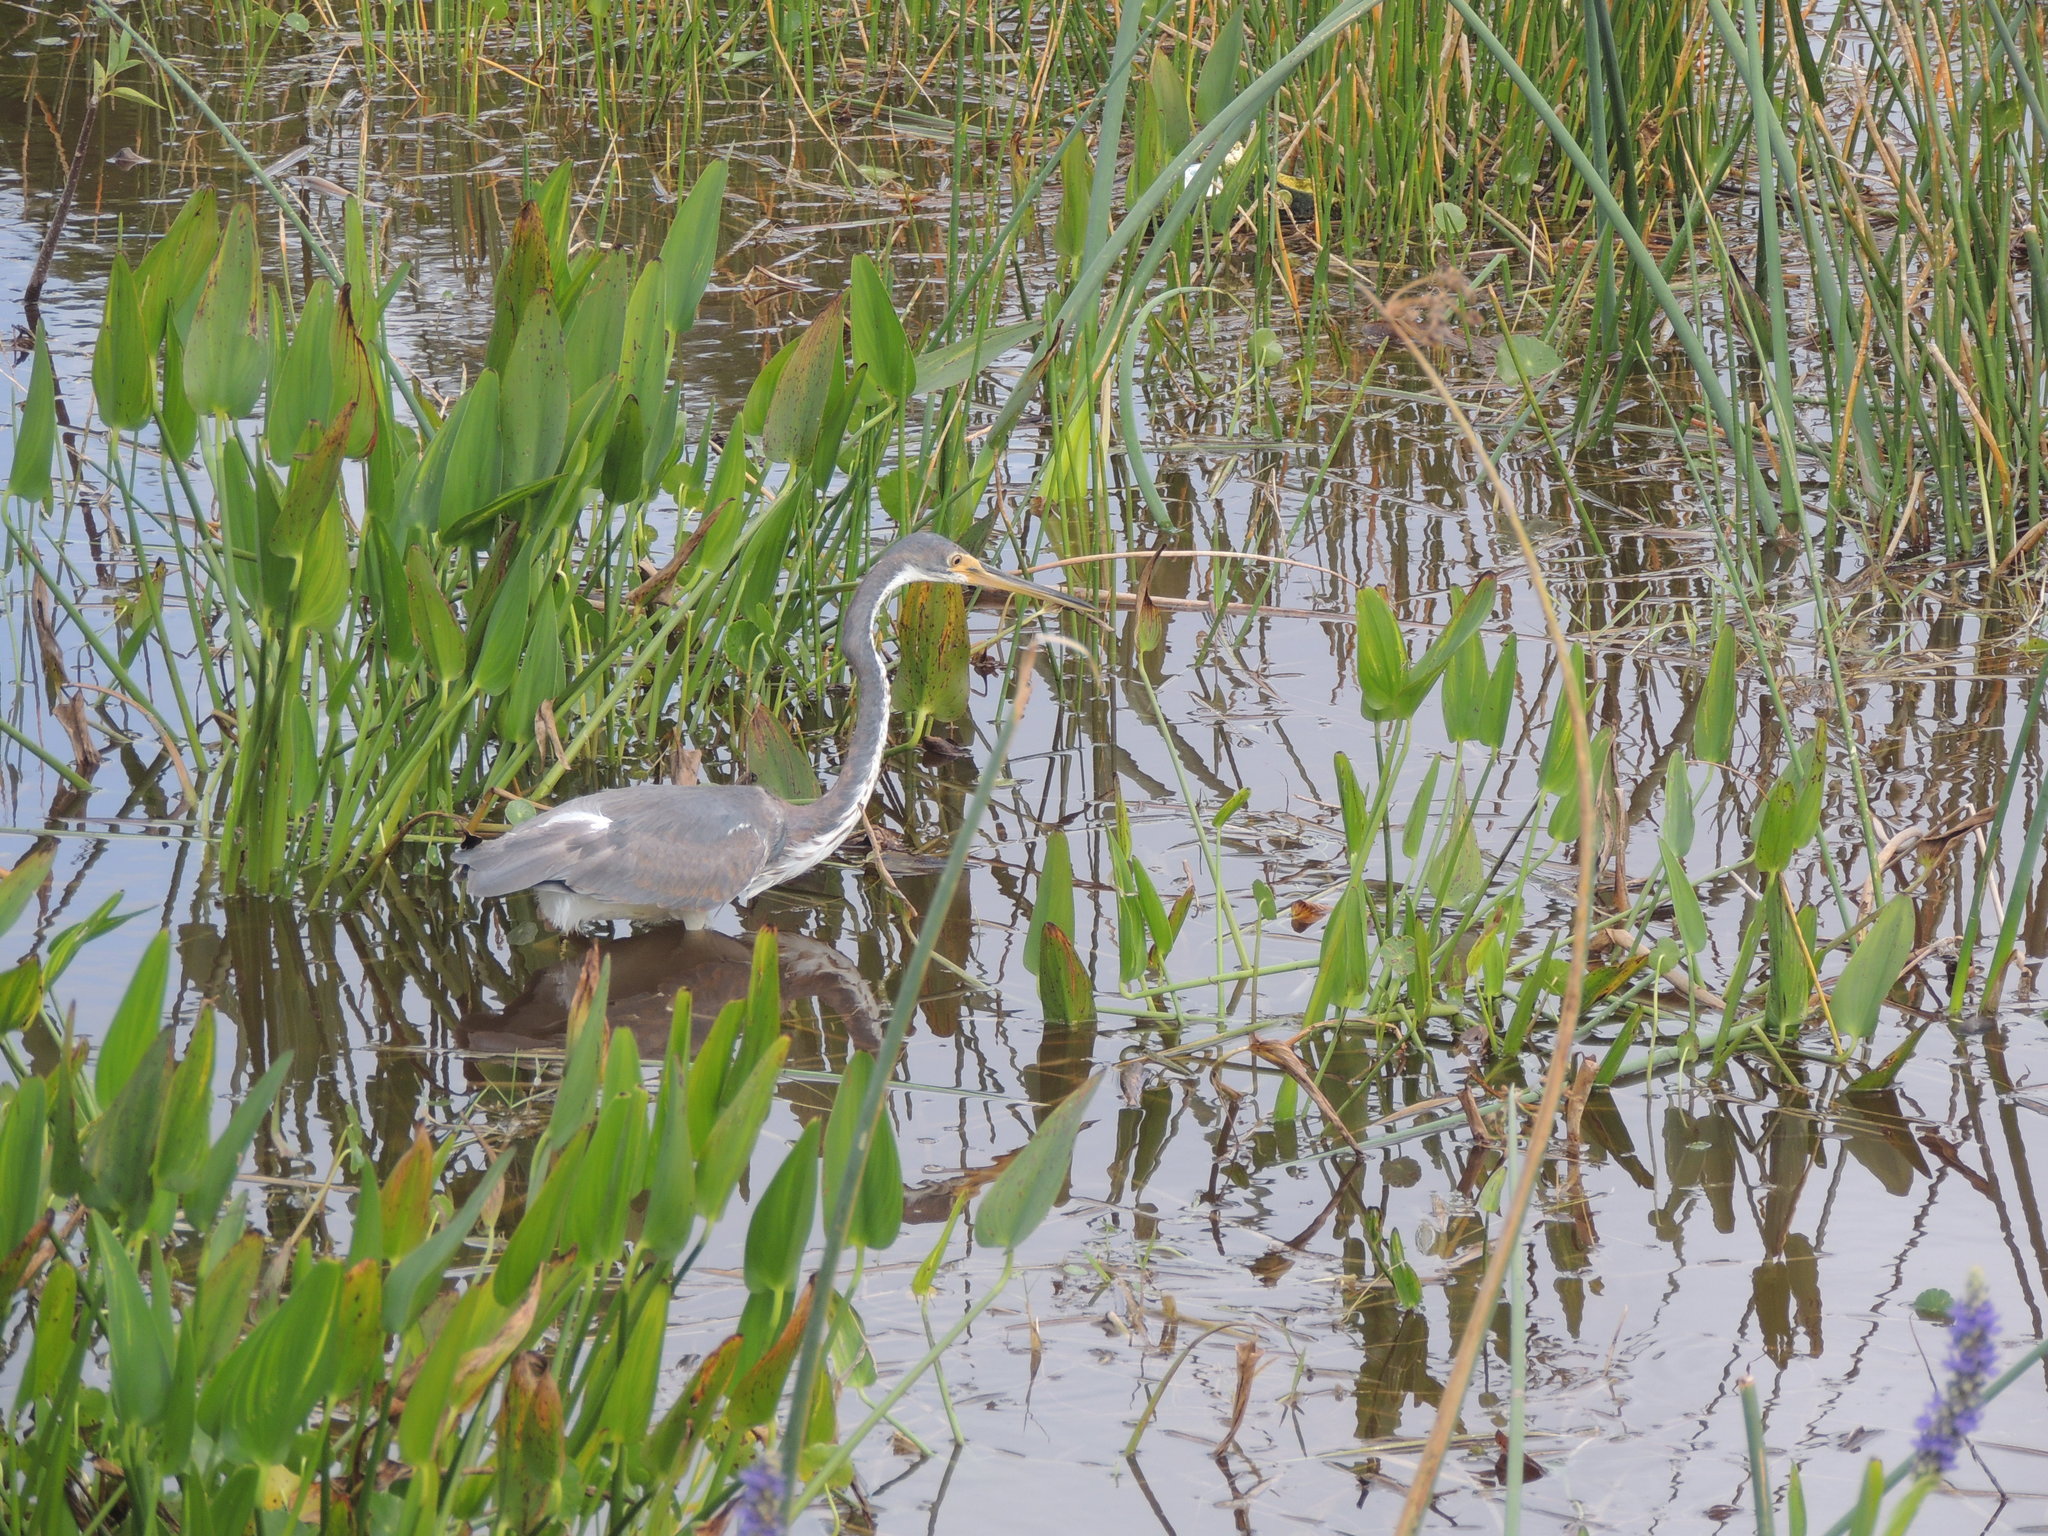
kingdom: Animalia
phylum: Chordata
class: Aves
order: Pelecaniformes
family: Ardeidae
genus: Egretta
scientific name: Egretta tricolor
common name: Tricolored heron
